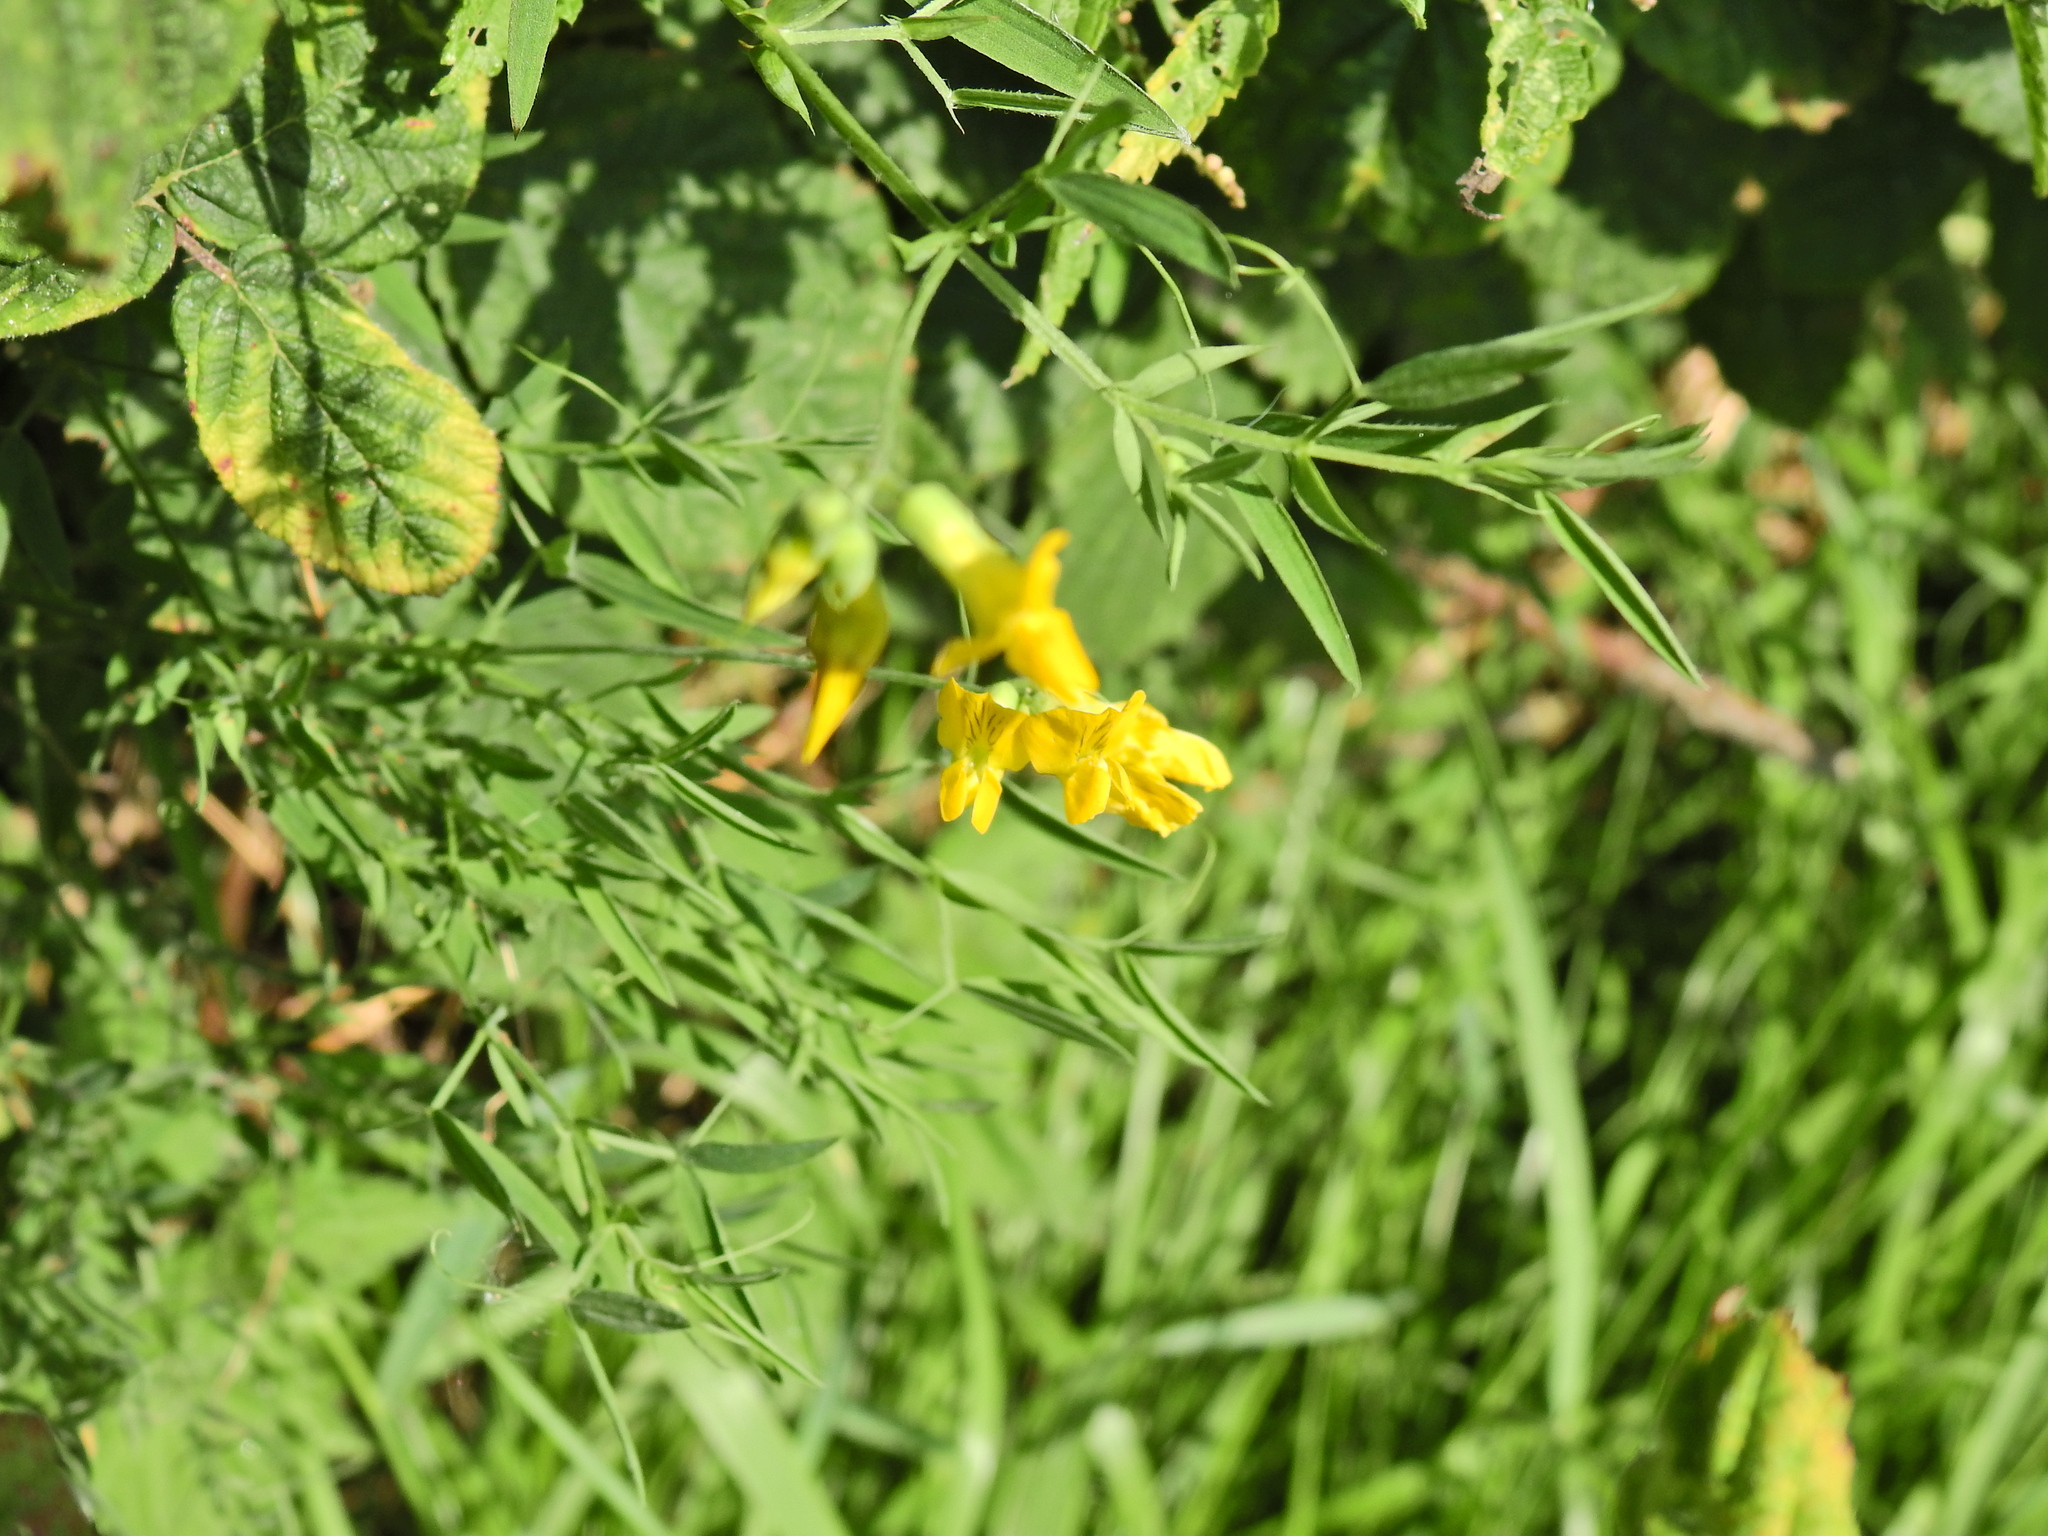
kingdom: Plantae
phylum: Tracheophyta
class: Magnoliopsida
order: Fabales
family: Fabaceae
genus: Lathyrus
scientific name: Lathyrus pratensis
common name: Meadow vetchling
